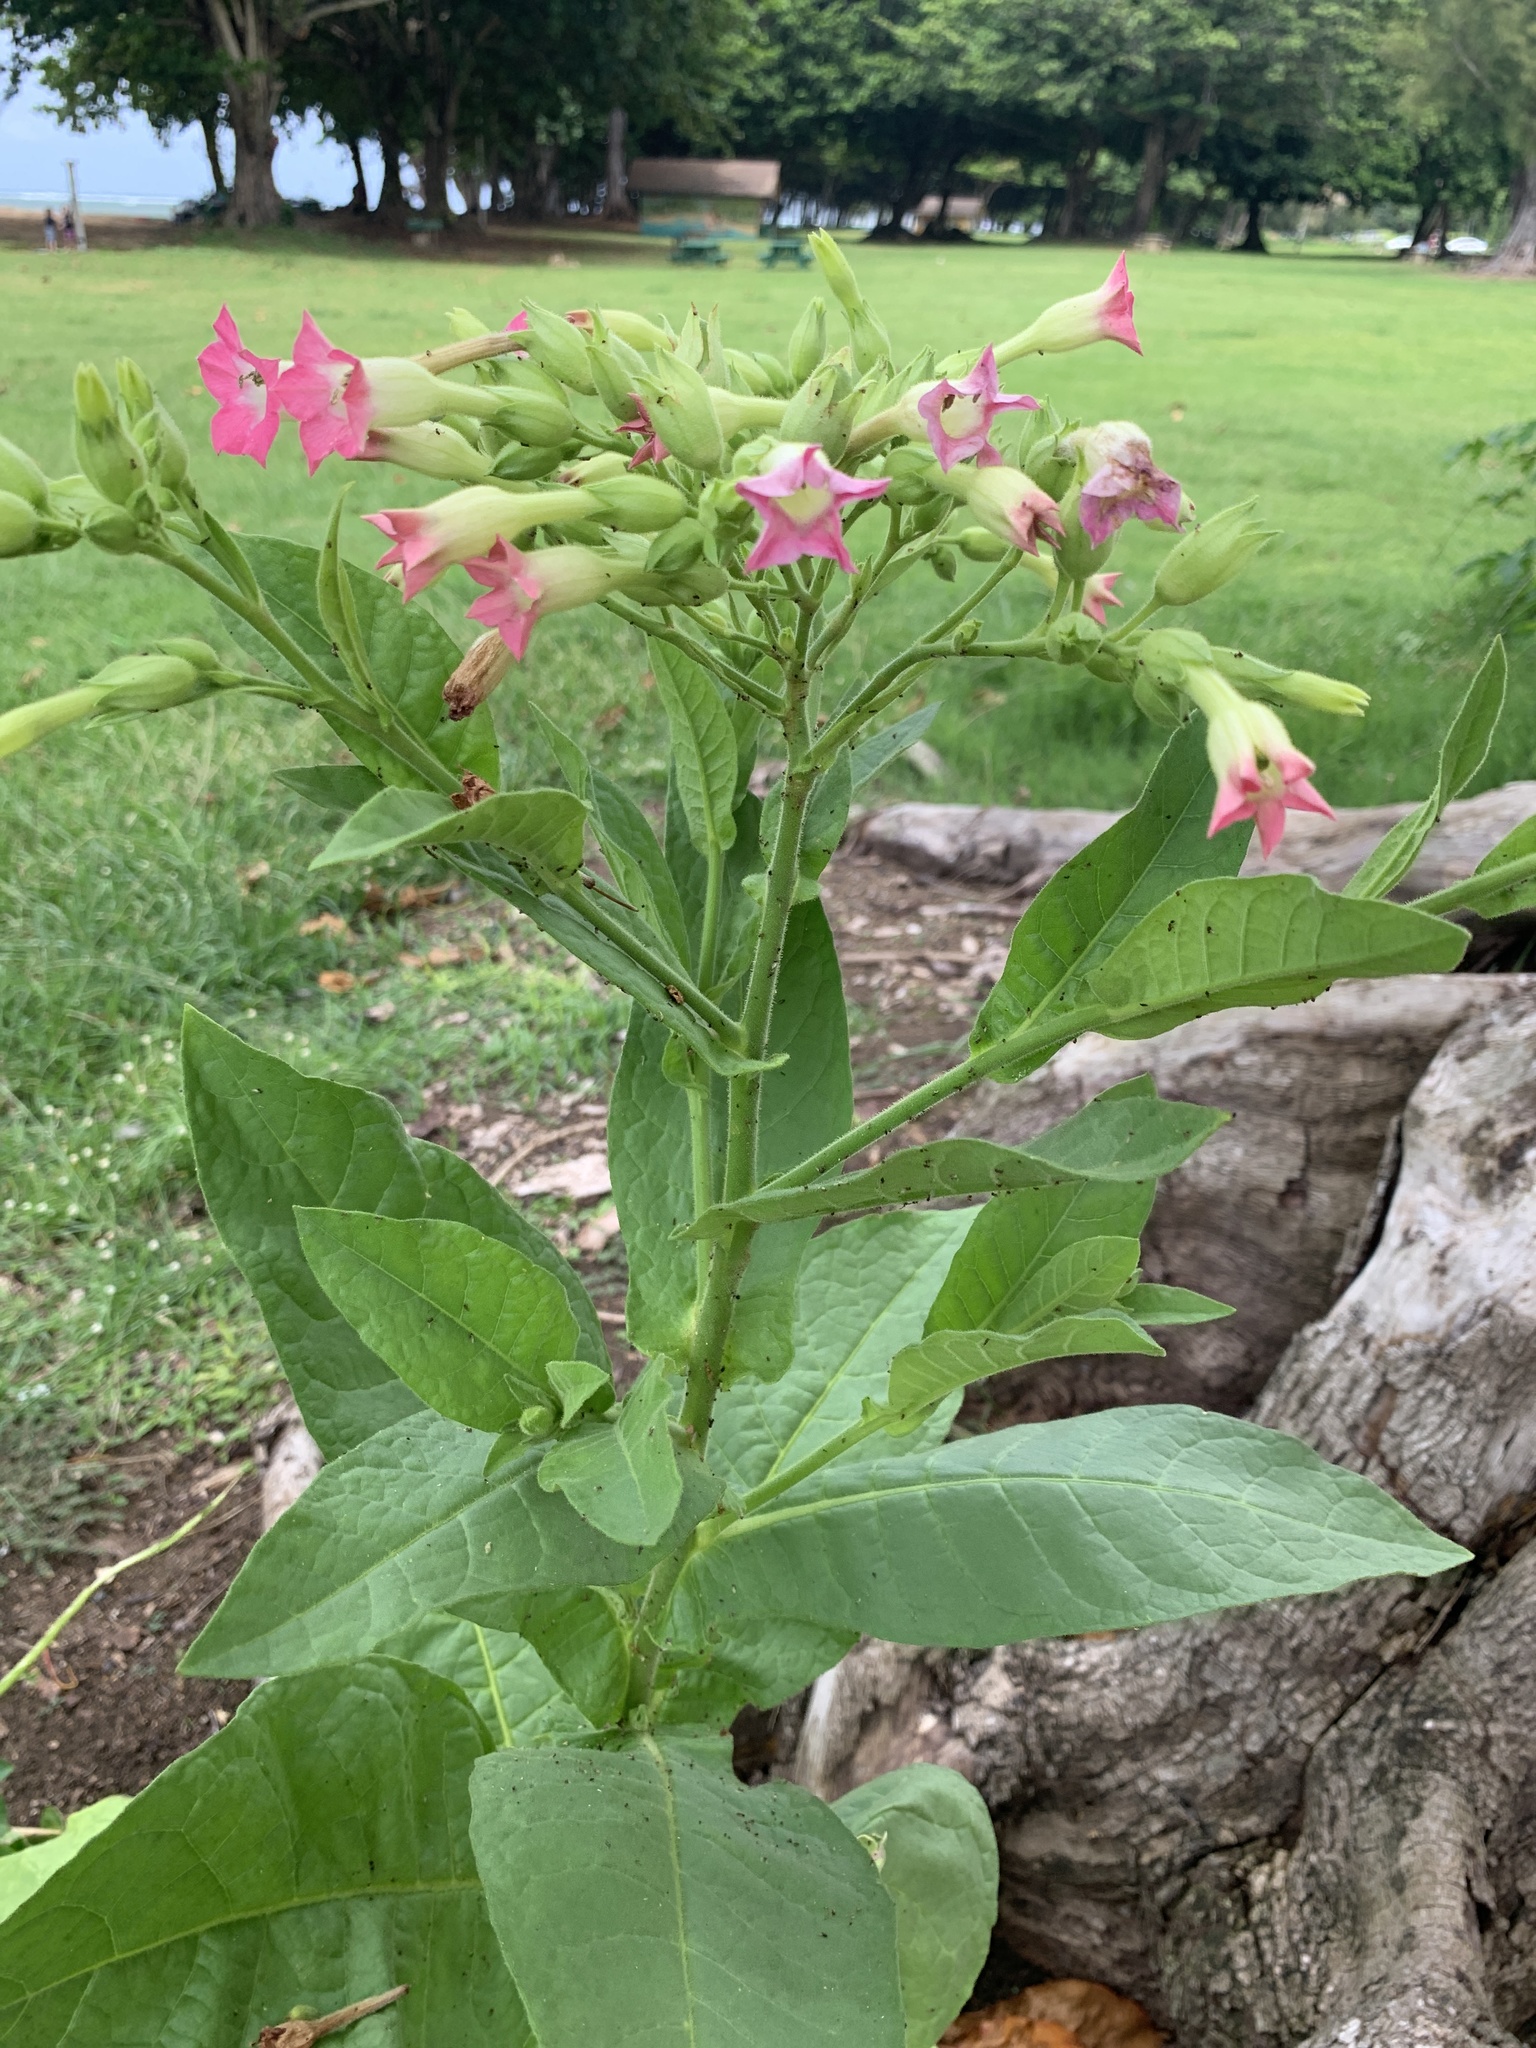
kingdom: Plantae
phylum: Tracheophyta
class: Magnoliopsida
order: Solanales
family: Solanaceae
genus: Nicotiana
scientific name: Nicotiana tabacum
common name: Tobacco
